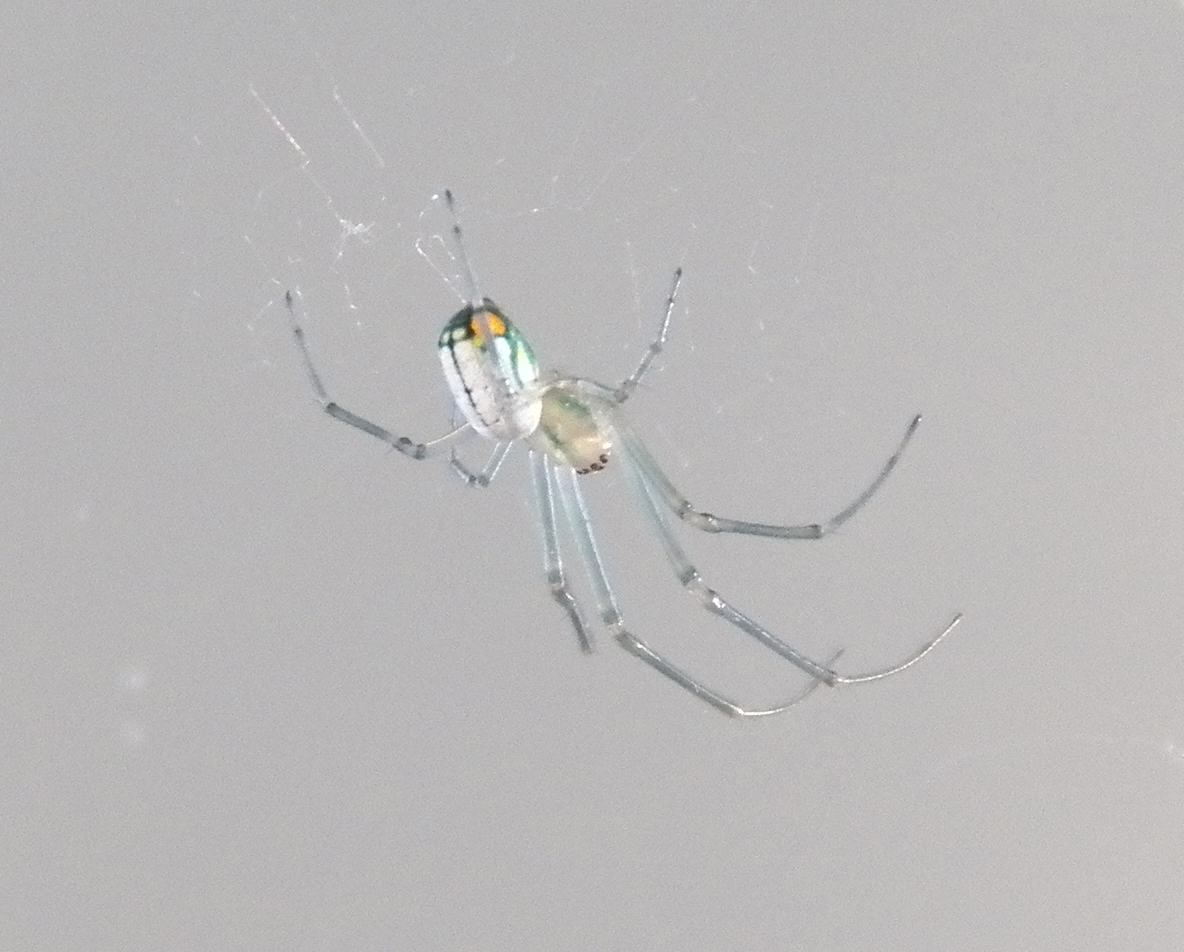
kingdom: Animalia
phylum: Arthropoda
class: Arachnida
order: Araneae
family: Tetragnathidae
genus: Leucauge
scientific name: Leucauge argyrobapta
